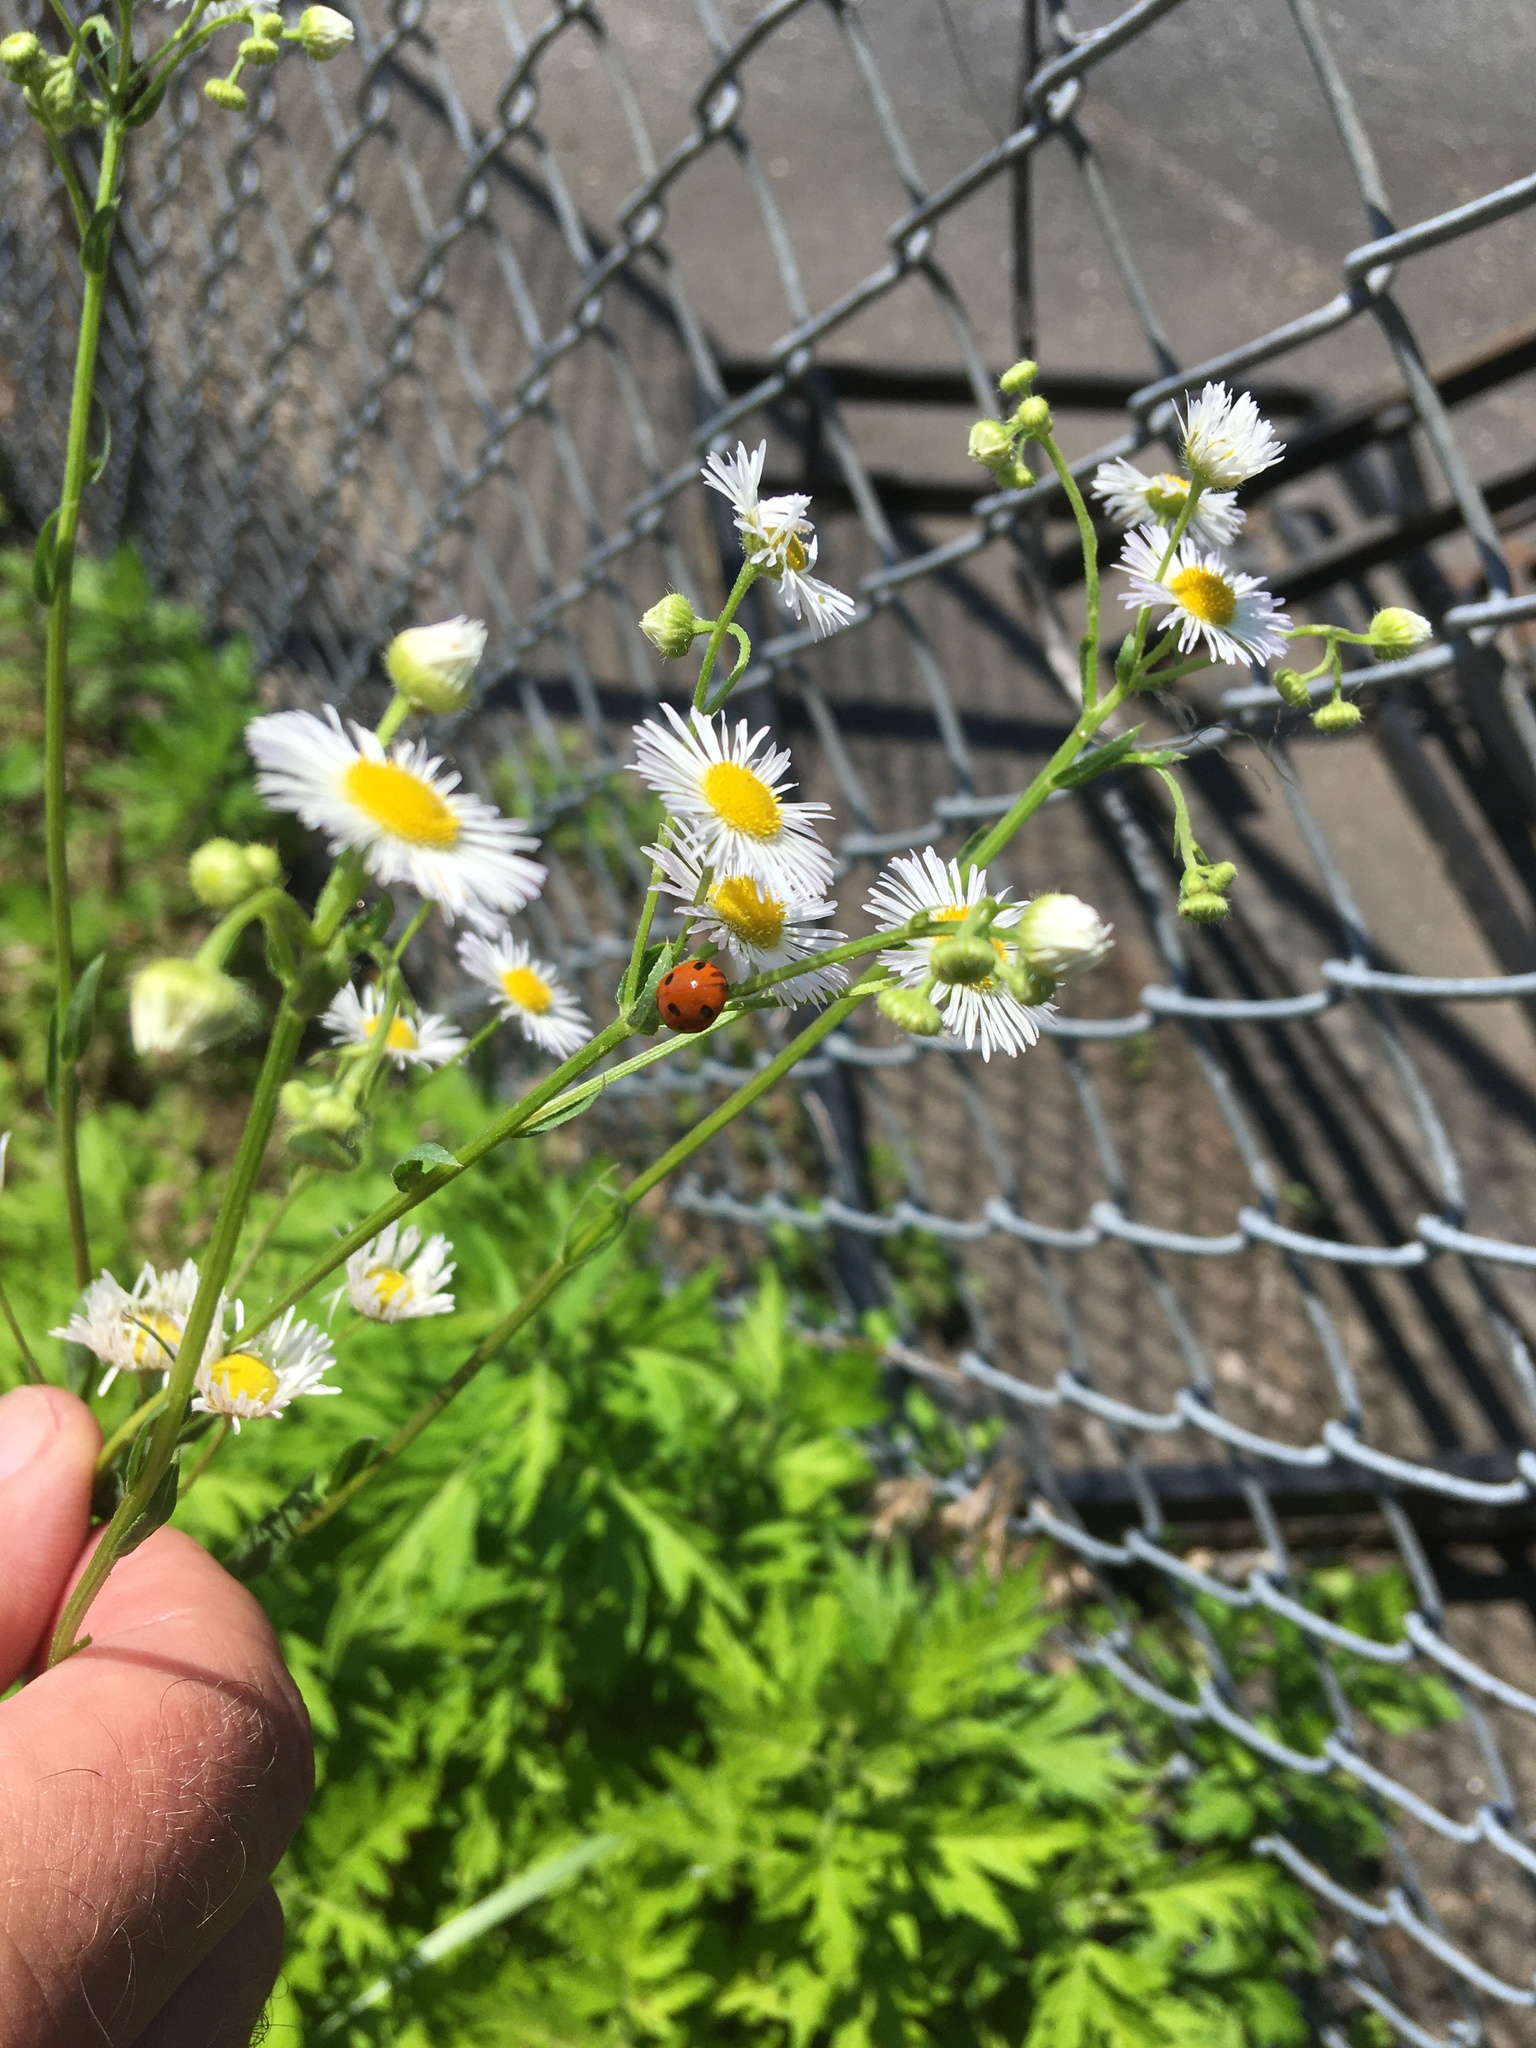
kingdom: Animalia
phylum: Arthropoda
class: Insecta
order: Coleoptera
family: Coccinellidae
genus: Coccinella
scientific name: Coccinella septempunctata
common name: Sevenspotted lady beetle
